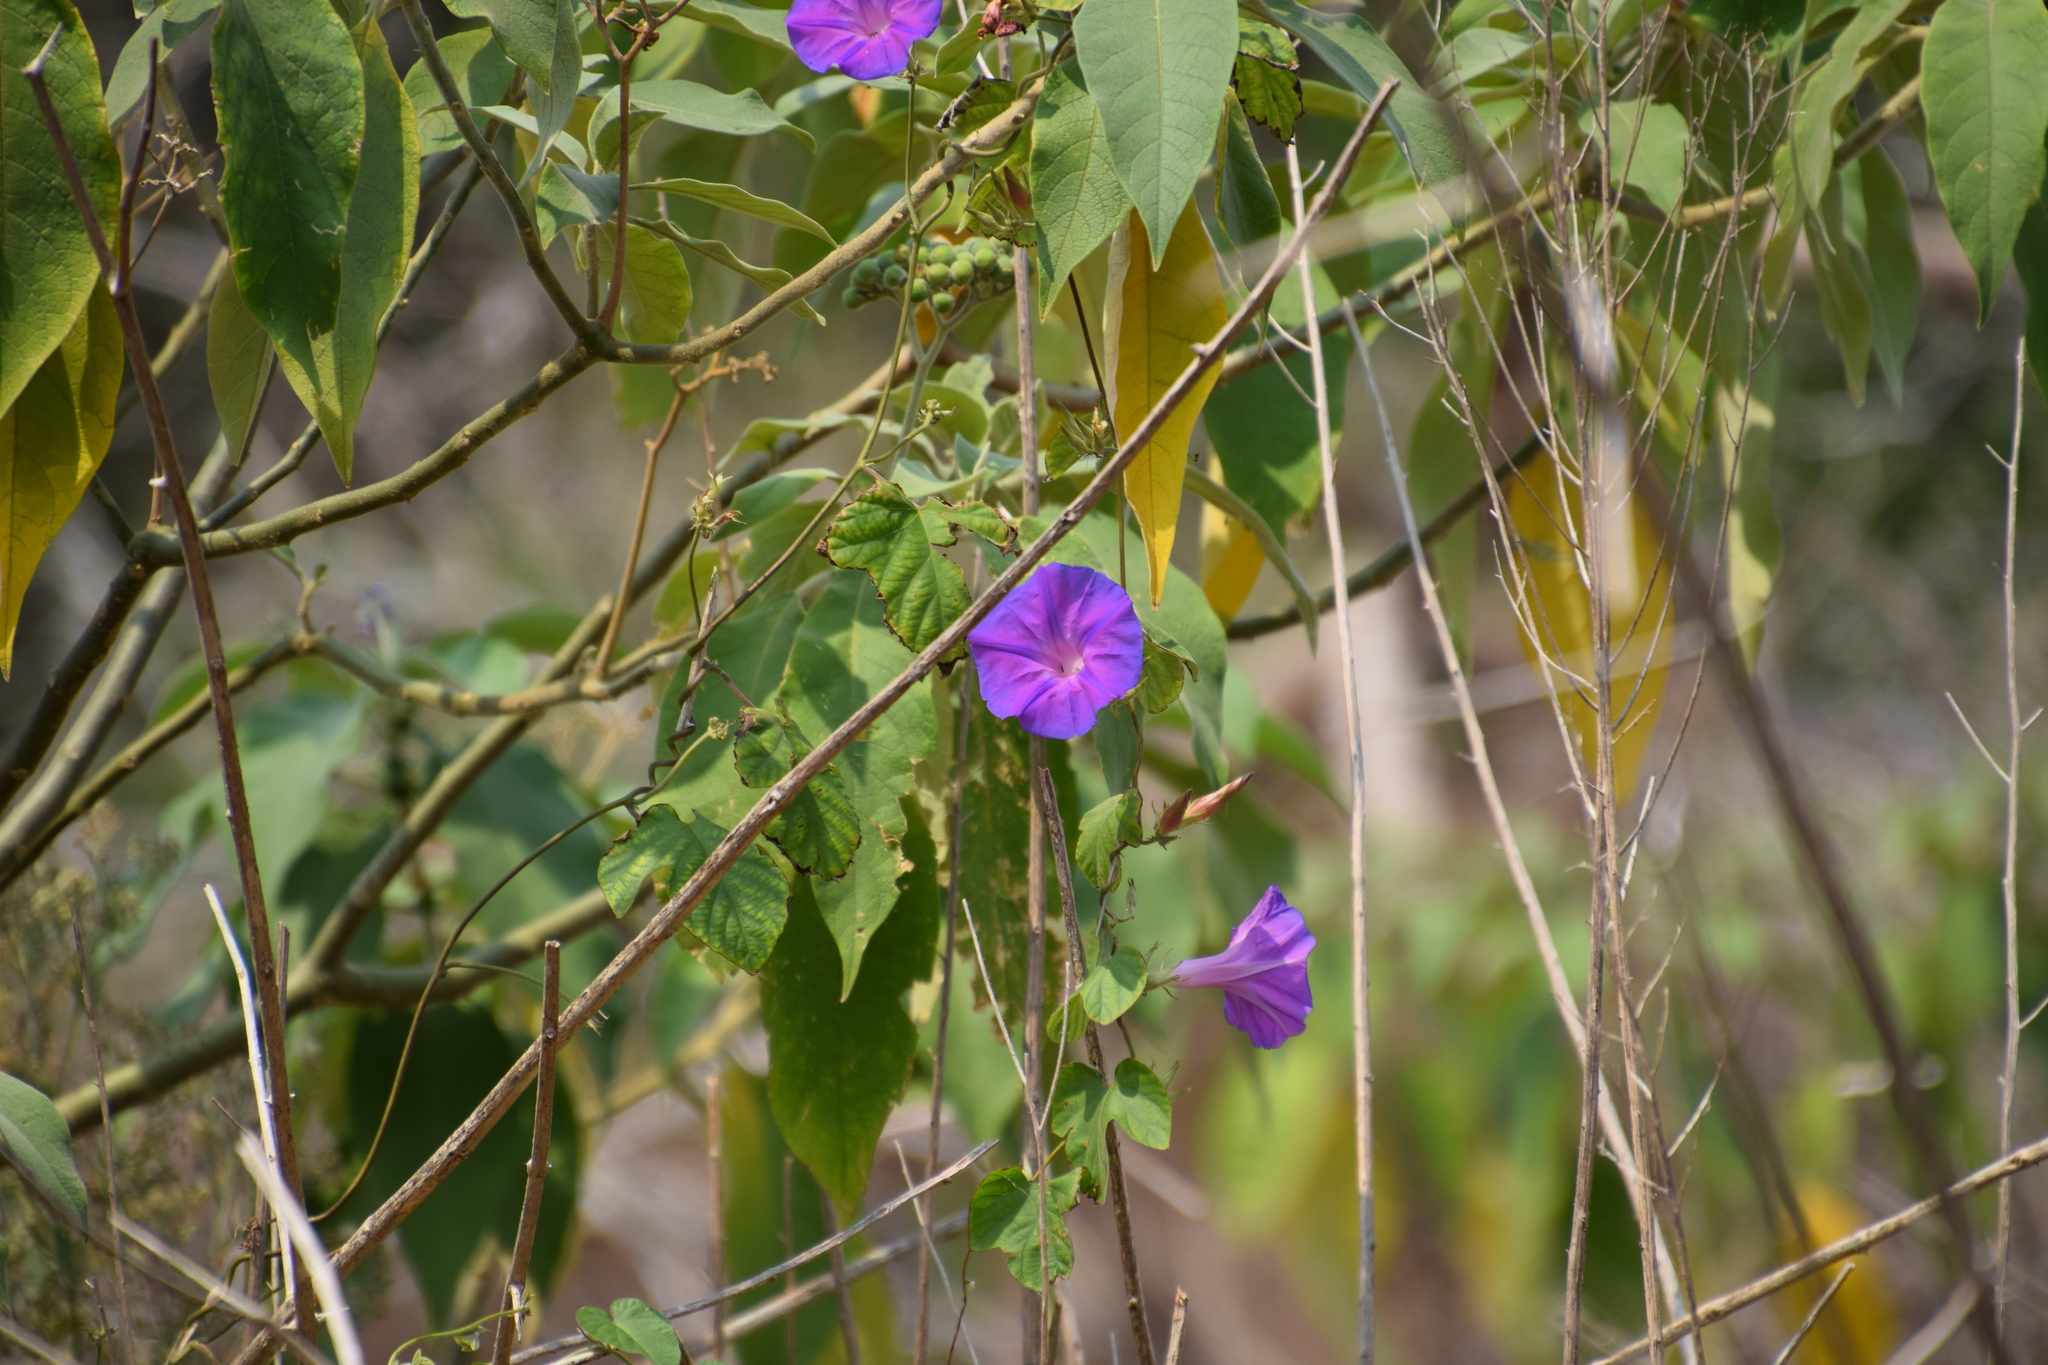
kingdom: Plantae
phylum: Tracheophyta
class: Magnoliopsida
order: Solanales
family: Convolvulaceae
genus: Ipomoea
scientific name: Ipomoea indica
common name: Blue dawnflower
